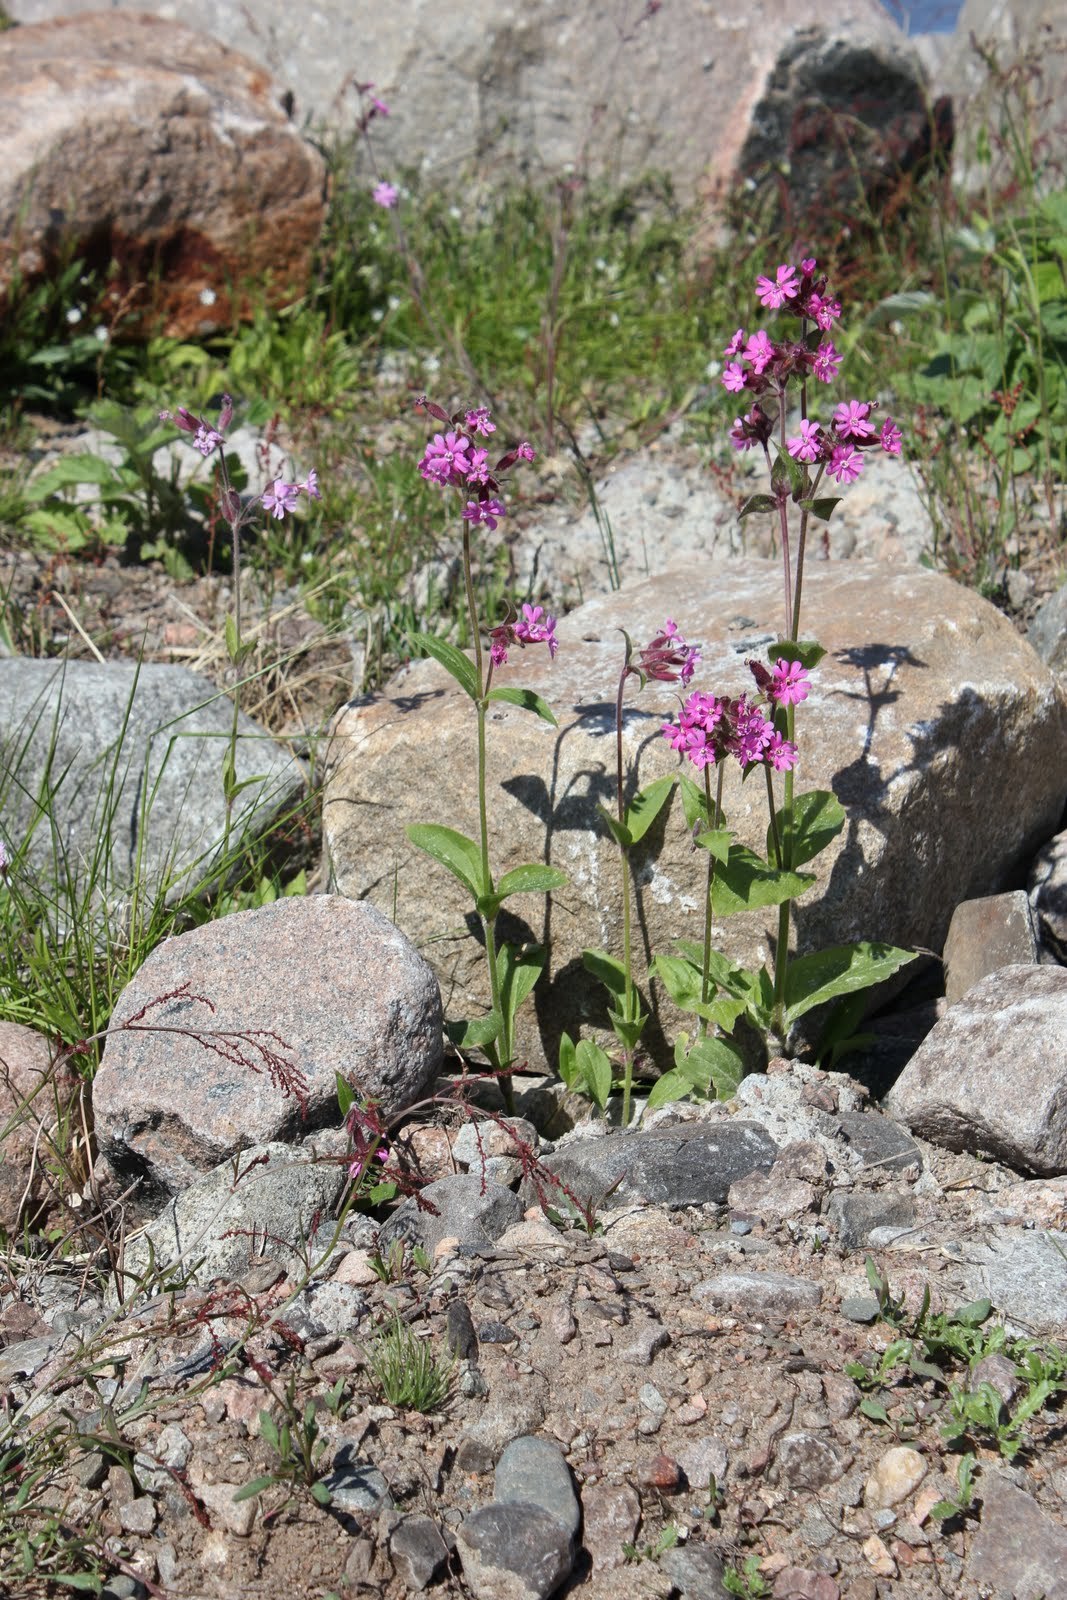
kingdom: Plantae
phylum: Tracheophyta
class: Magnoliopsida
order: Caryophyllales
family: Caryophyllaceae
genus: Silene
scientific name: Silene dioica
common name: Red campion
